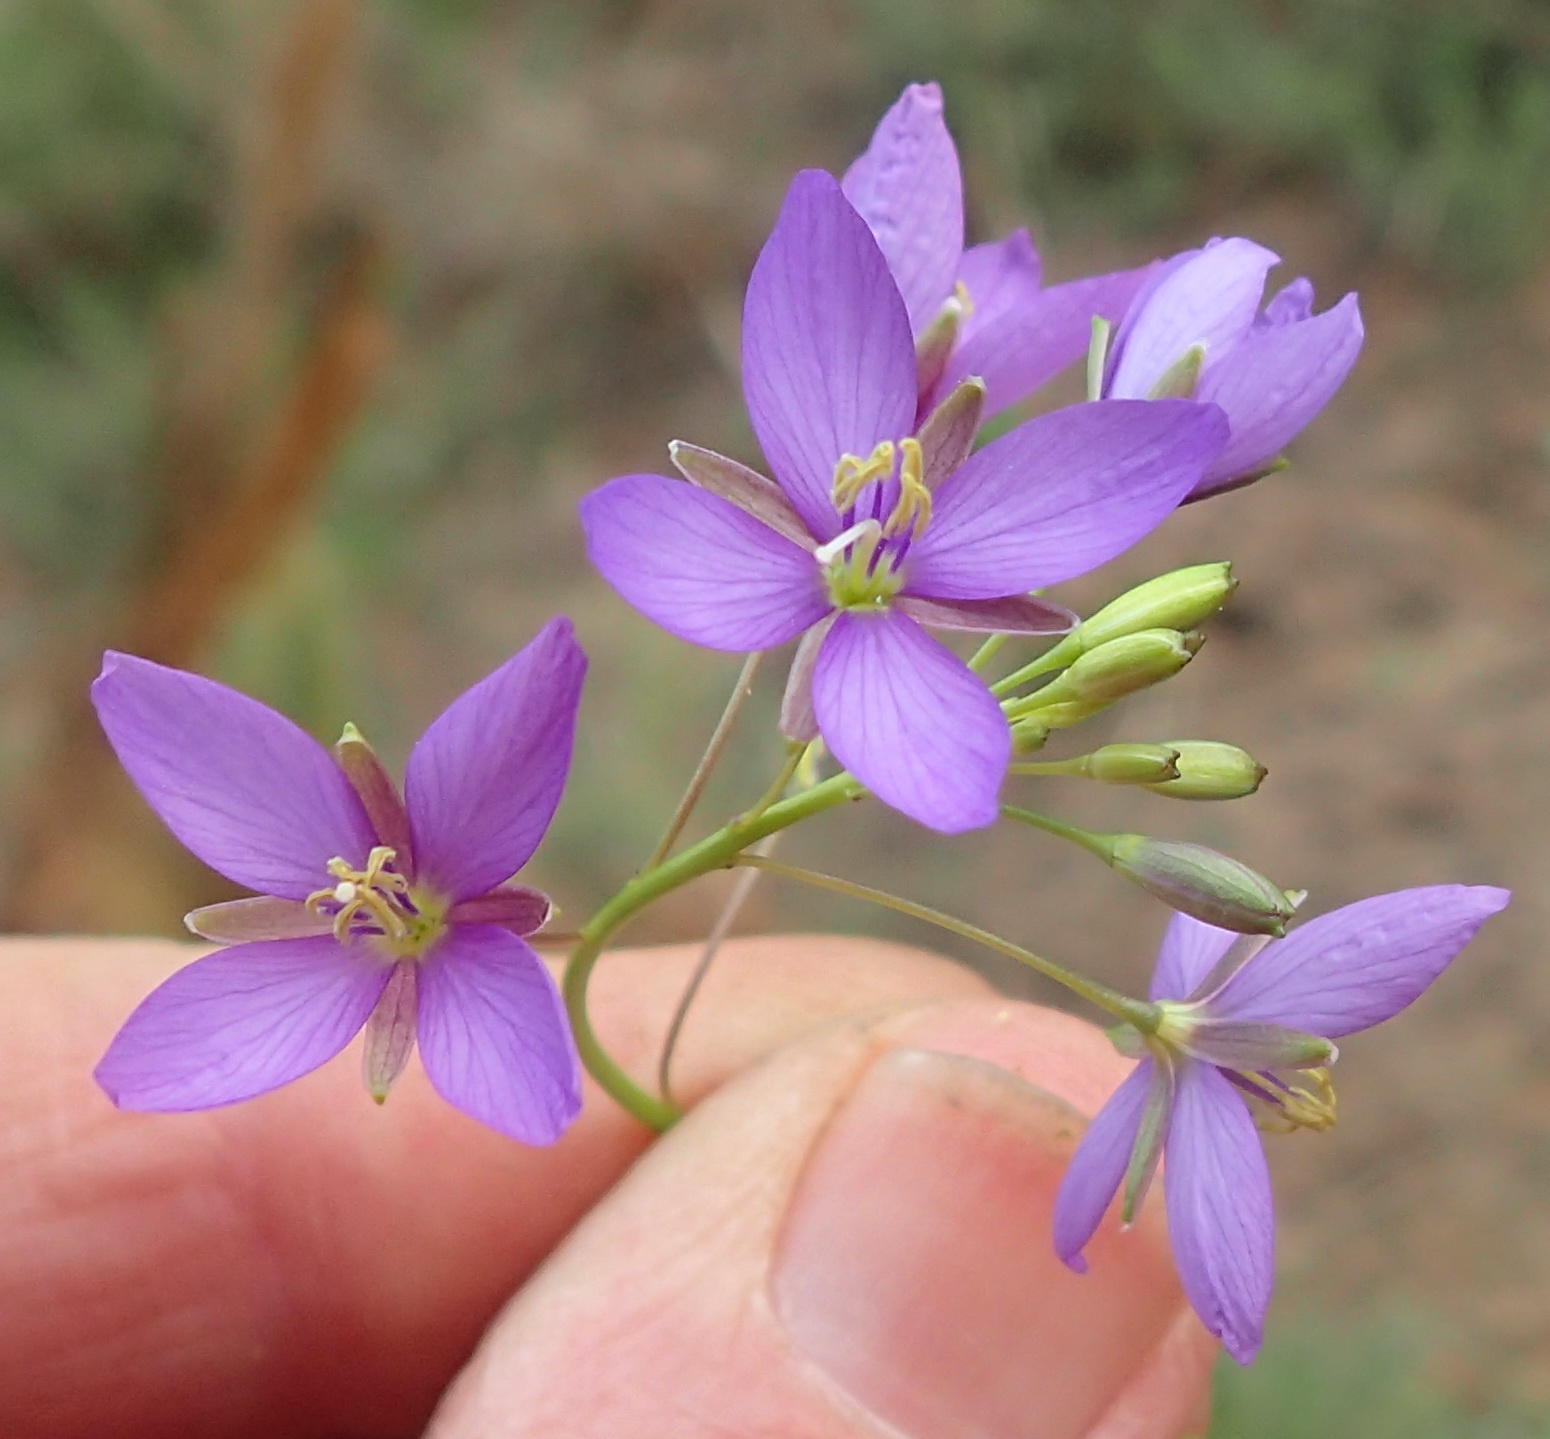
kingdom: Plantae
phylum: Tracheophyta
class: Magnoliopsida
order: Brassicales
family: Brassicaceae
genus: Heliophila
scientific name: Heliophila subulata
